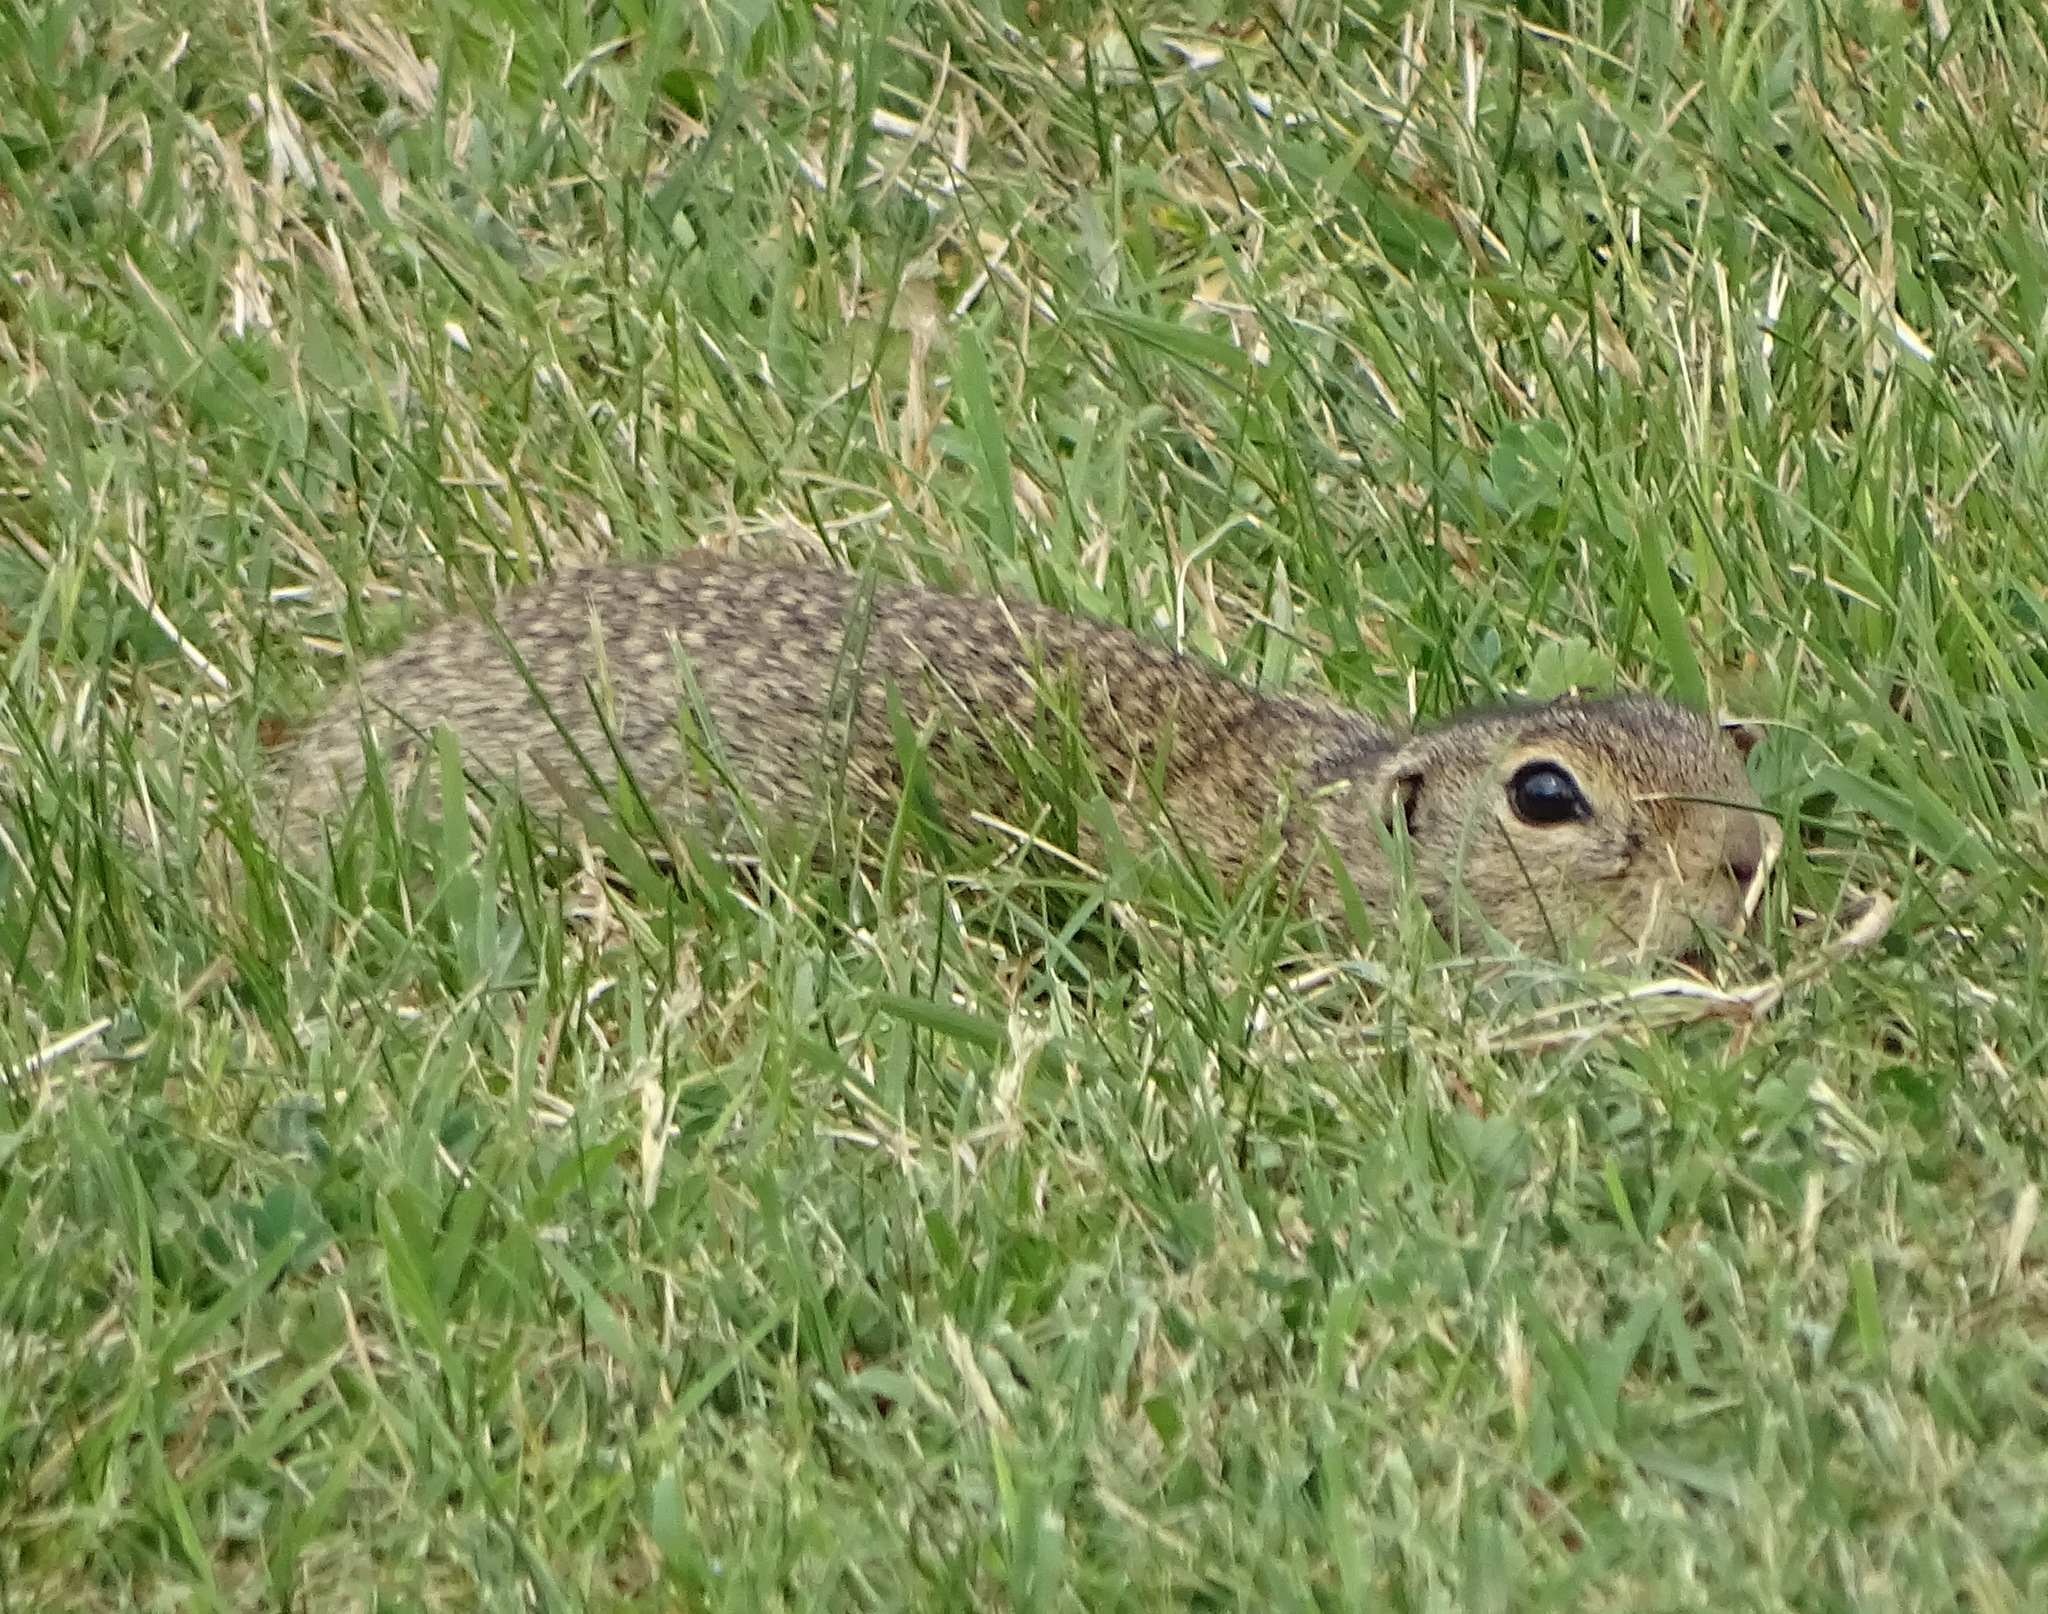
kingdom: Animalia
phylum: Chordata
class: Mammalia
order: Rodentia
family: Sciuridae
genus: Spermophilus
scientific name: Spermophilus citellus
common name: European ground squirrel
